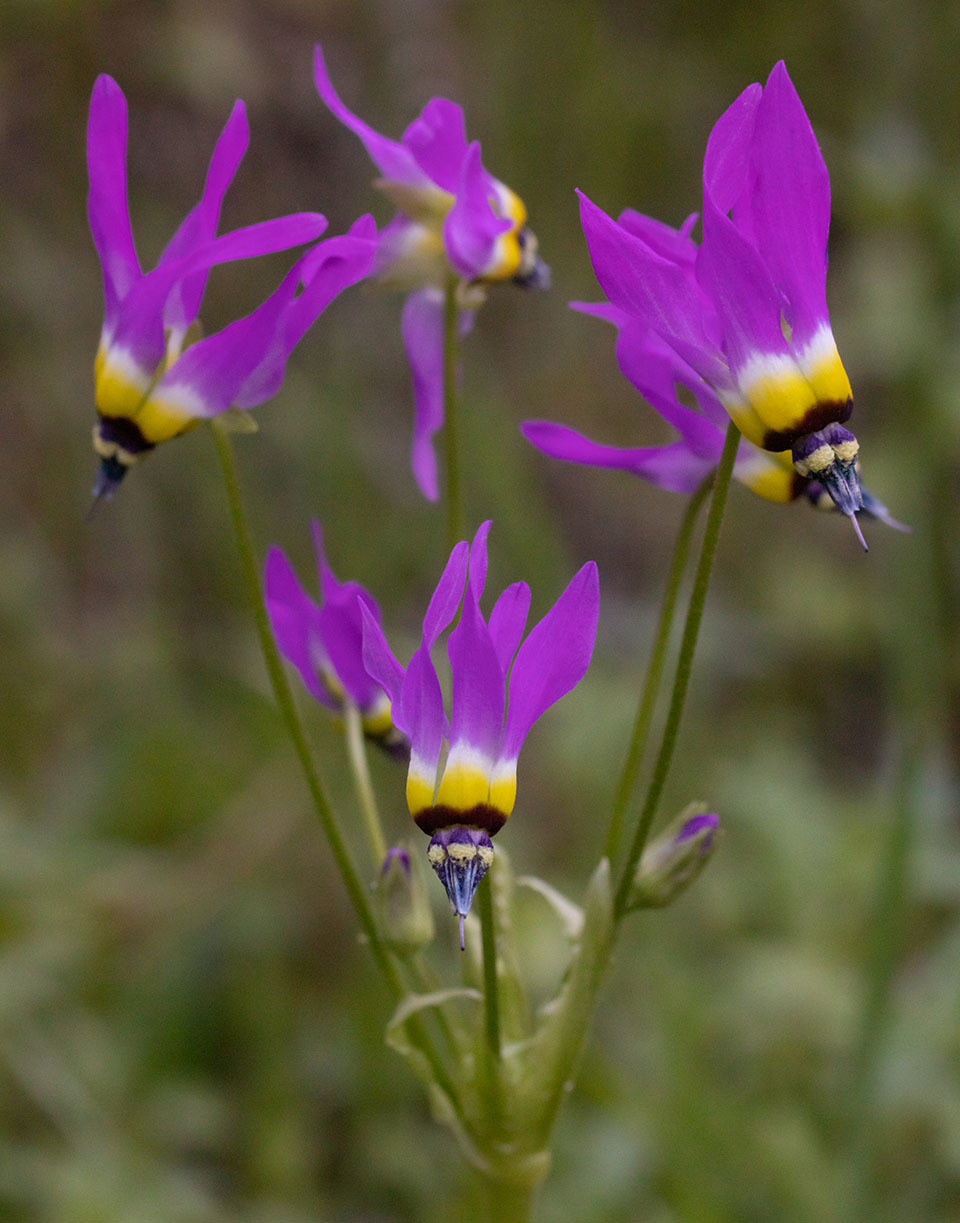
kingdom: Plantae
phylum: Tracheophyta
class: Magnoliopsida
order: Ericales
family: Primulaceae
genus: Dodecatheon
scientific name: Dodecatheon clevelandii
